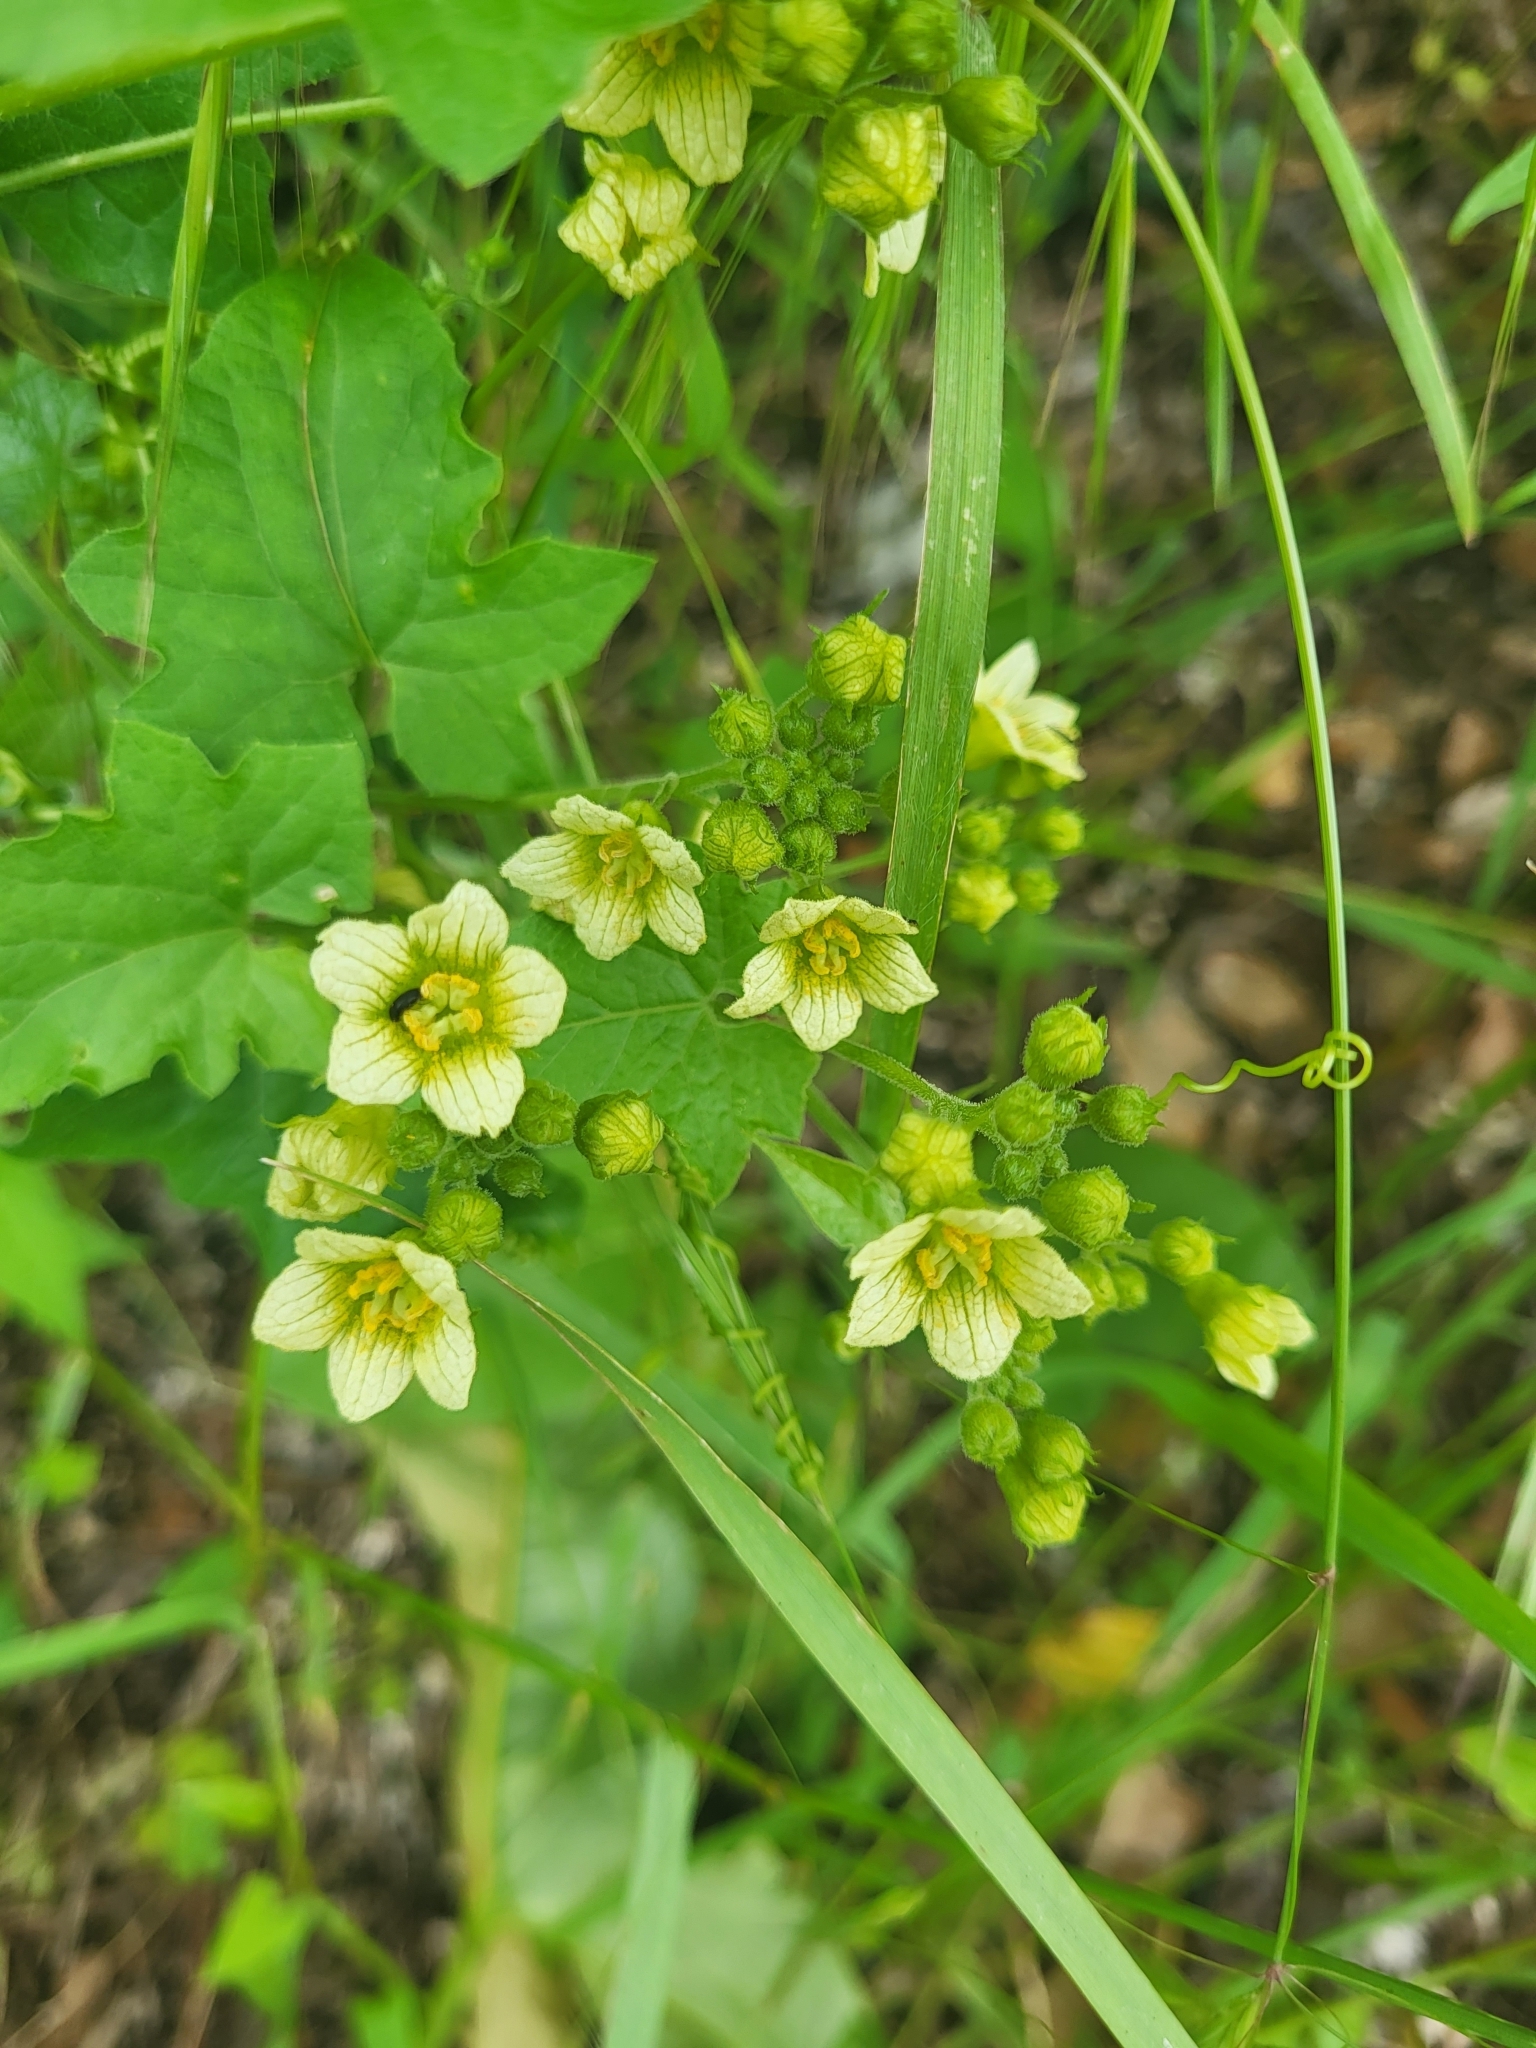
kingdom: Plantae
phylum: Tracheophyta
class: Magnoliopsida
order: Cucurbitales
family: Cucurbitaceae
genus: Bryonia
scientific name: Bryonia cretica
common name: Cretan bryony
